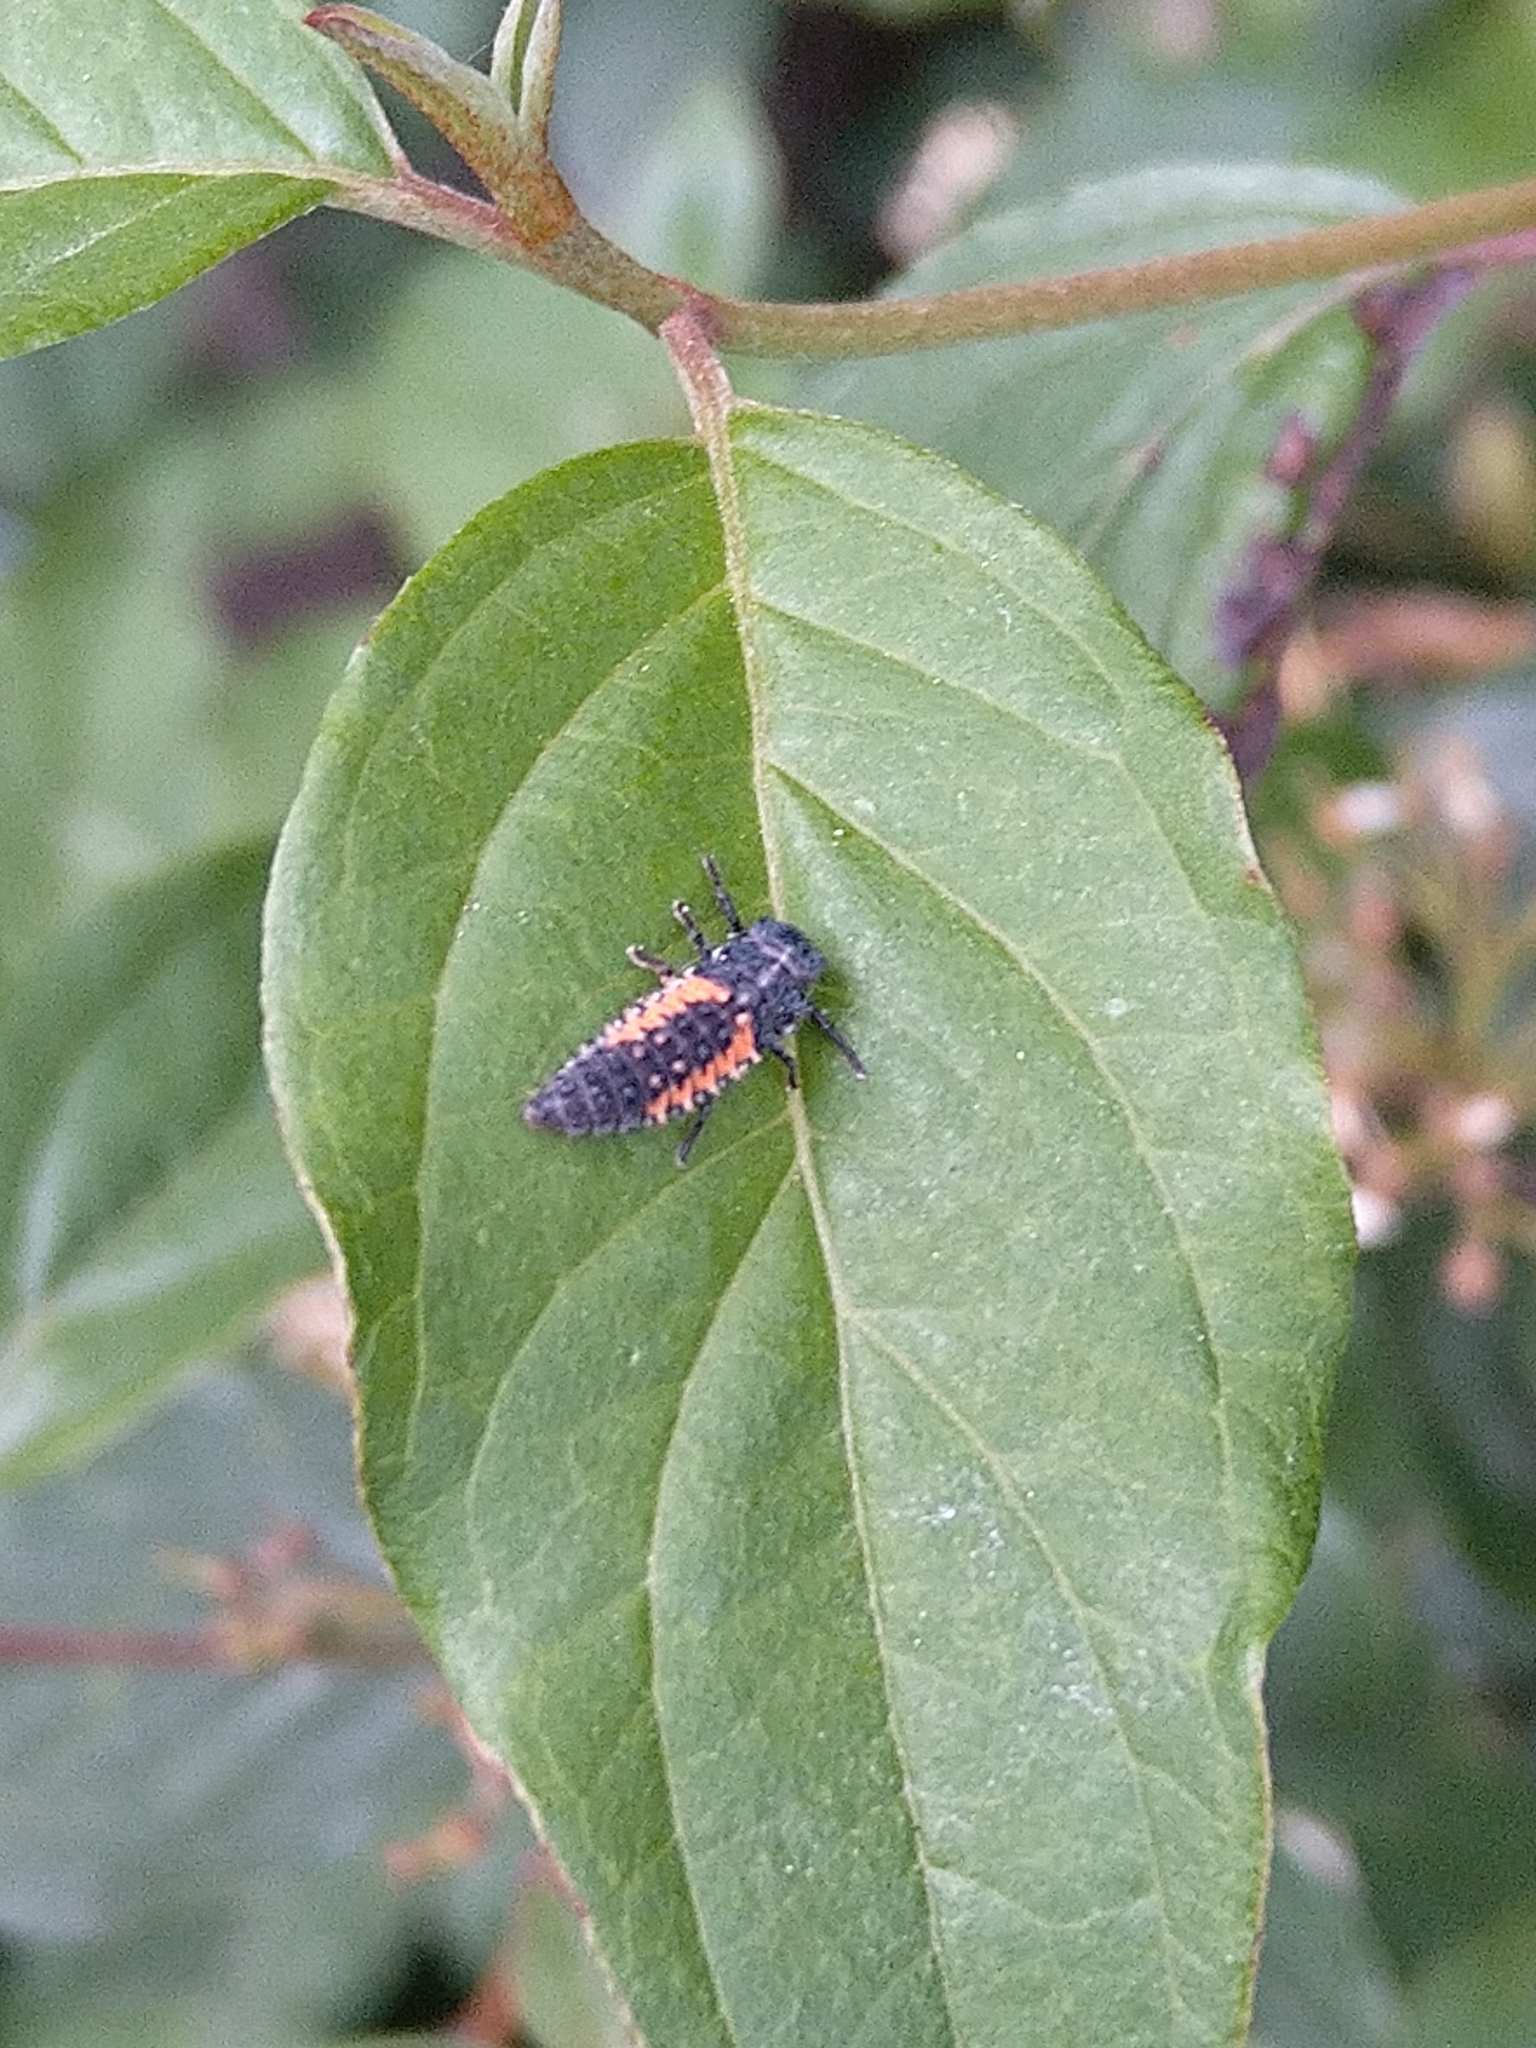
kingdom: Animalia
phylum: Arthropoda
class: Insecta
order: Coleoptera
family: Coccinellidae
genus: Harmonia
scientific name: Harmonia axyridis
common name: Harlequin ladybird
